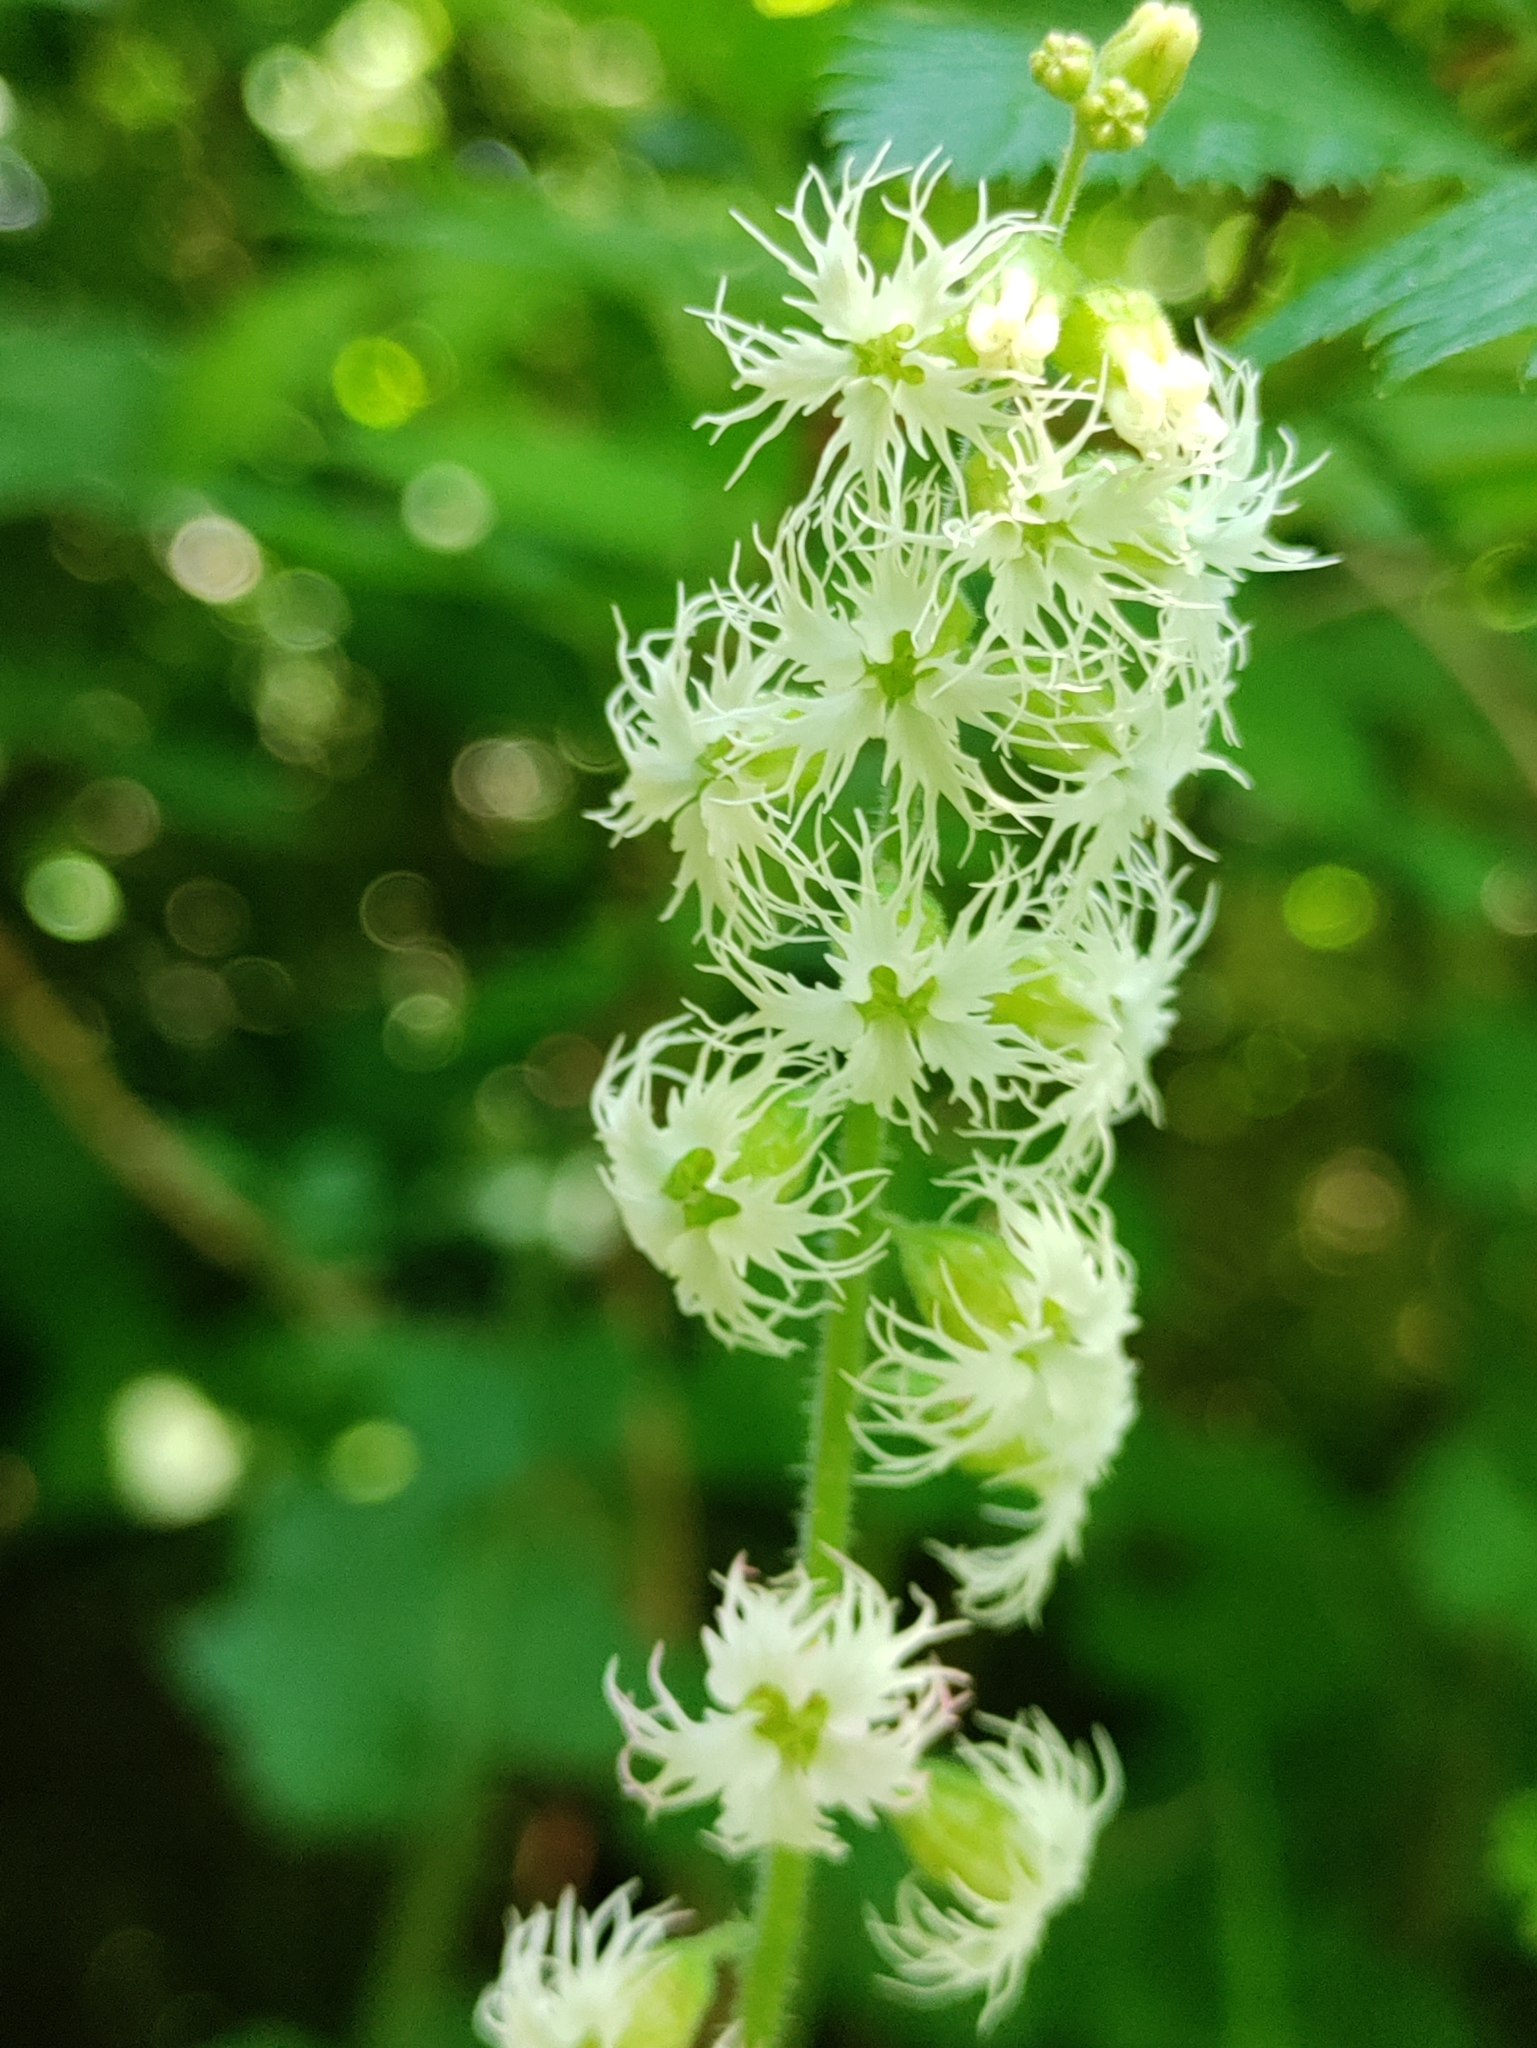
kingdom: Plantae
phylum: Tracheophyta
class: Magnoliopsida
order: Saxifragales
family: Saxifragaceae
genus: Tellima
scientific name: Tellima grandiflora
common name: Fringecups
